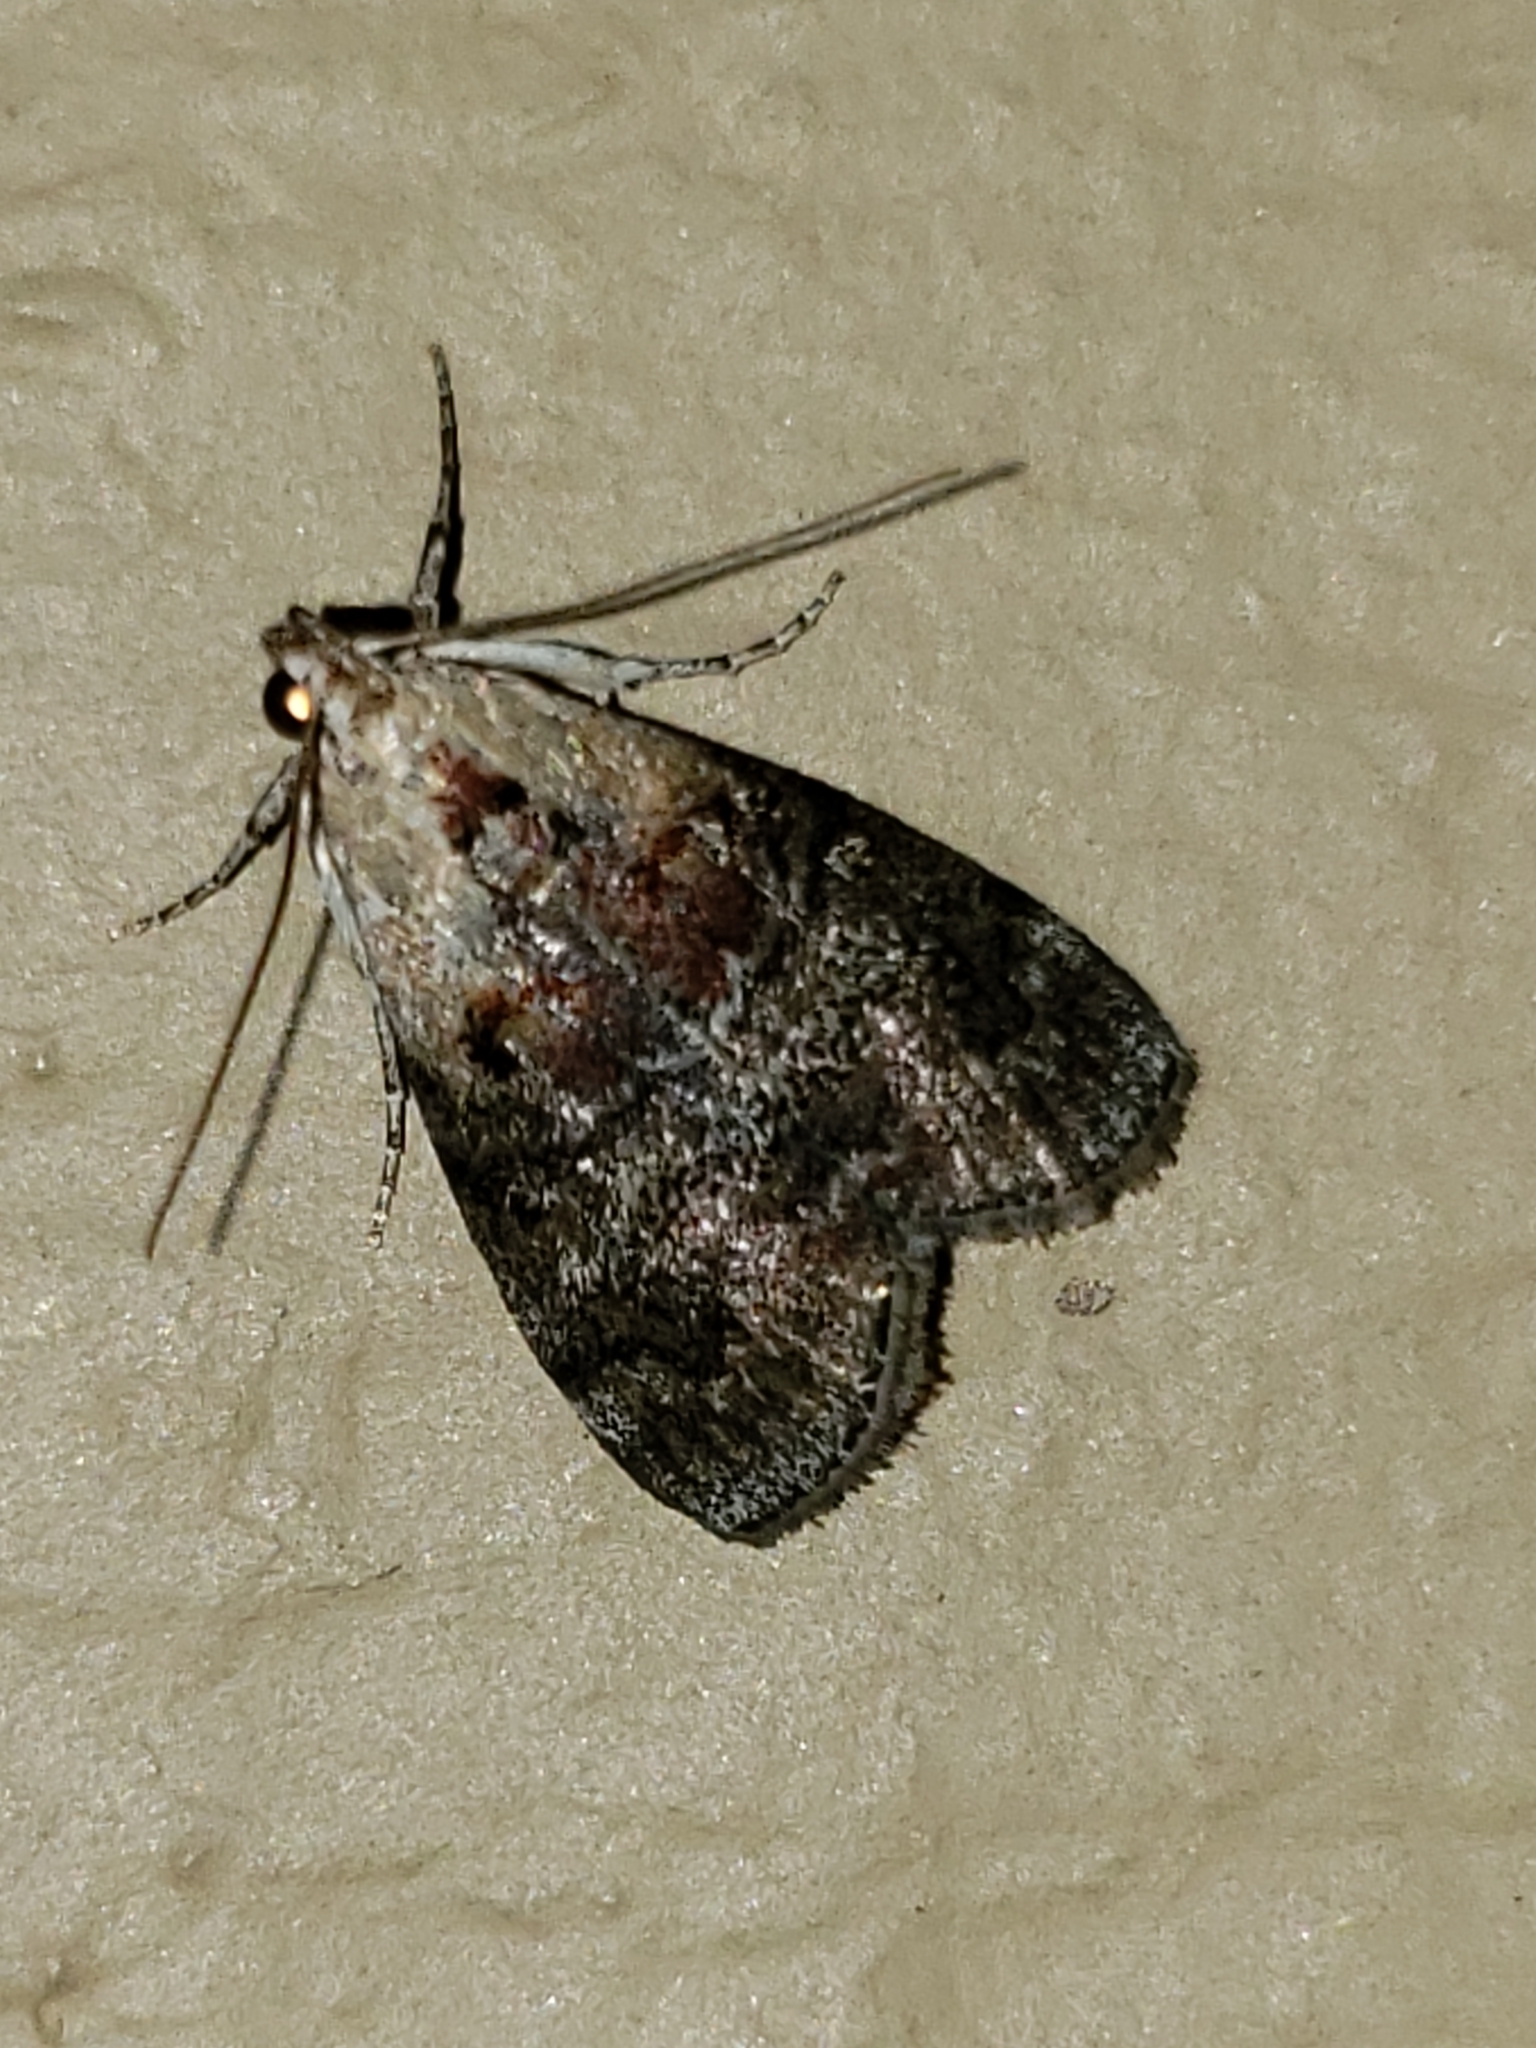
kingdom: Animalia
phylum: Arthropoda
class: Insecta
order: Lepidoptera
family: Pyralidae
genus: Pococera
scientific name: Pococera expandens
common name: Striped oak webworm moth
